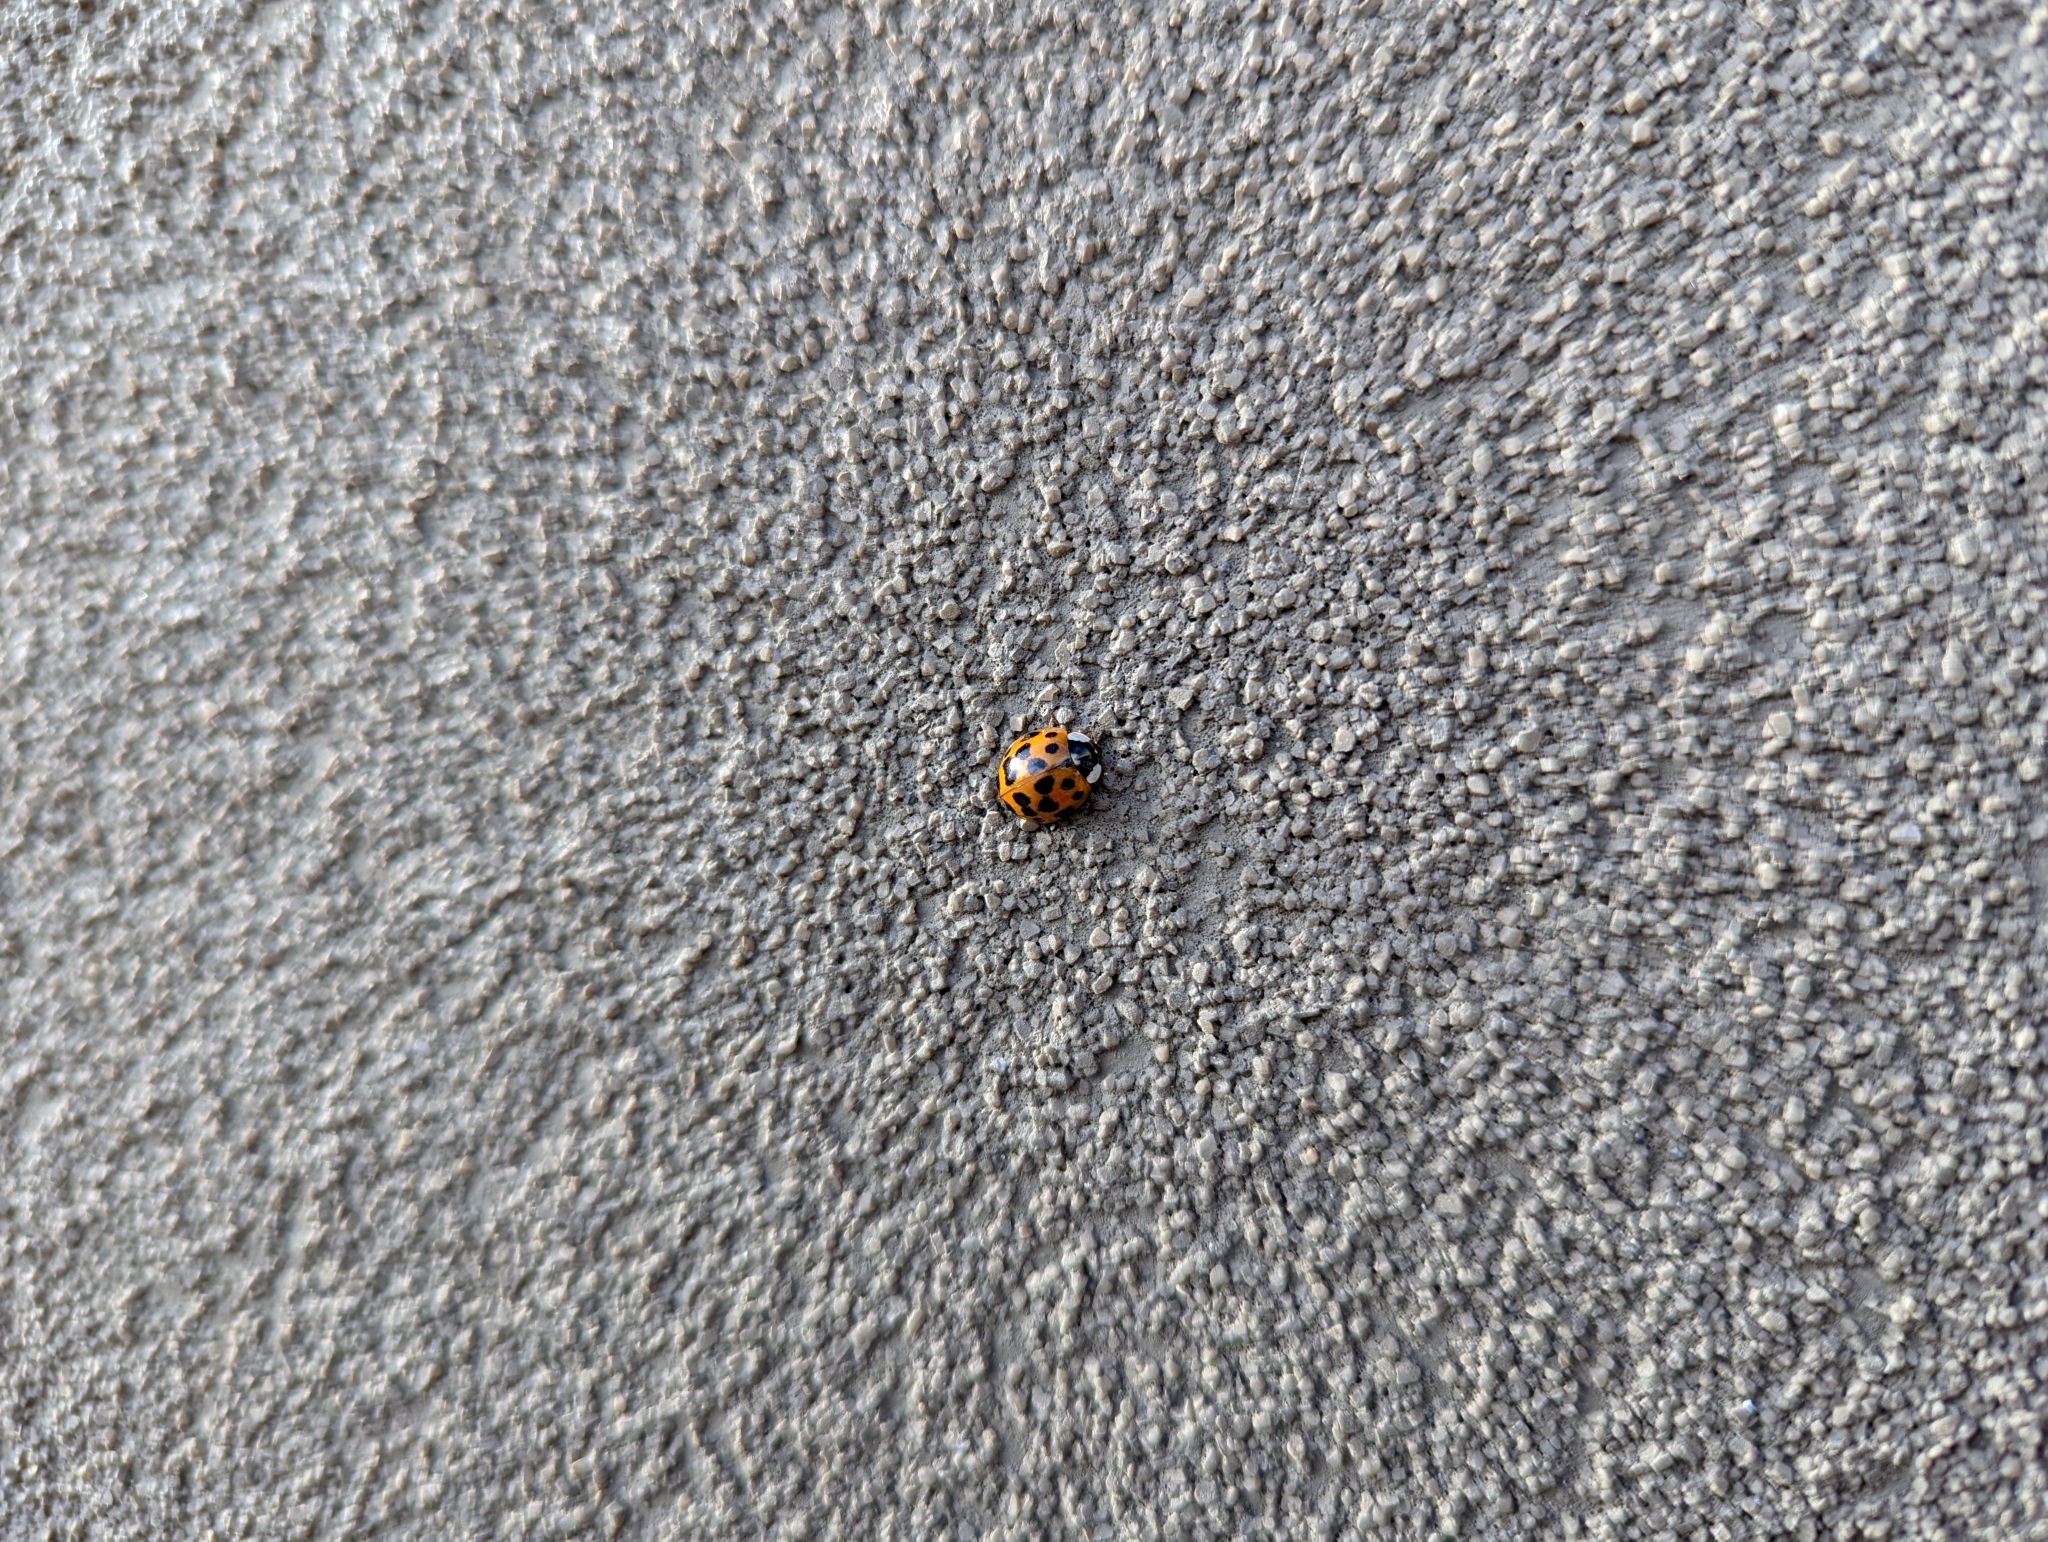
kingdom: Animalia
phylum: Arthropoda
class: Insecta
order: Coleoptera
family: Coccinellidae
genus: Harmonia
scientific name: Harmonia axyridis
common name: Harlequin ladybird
